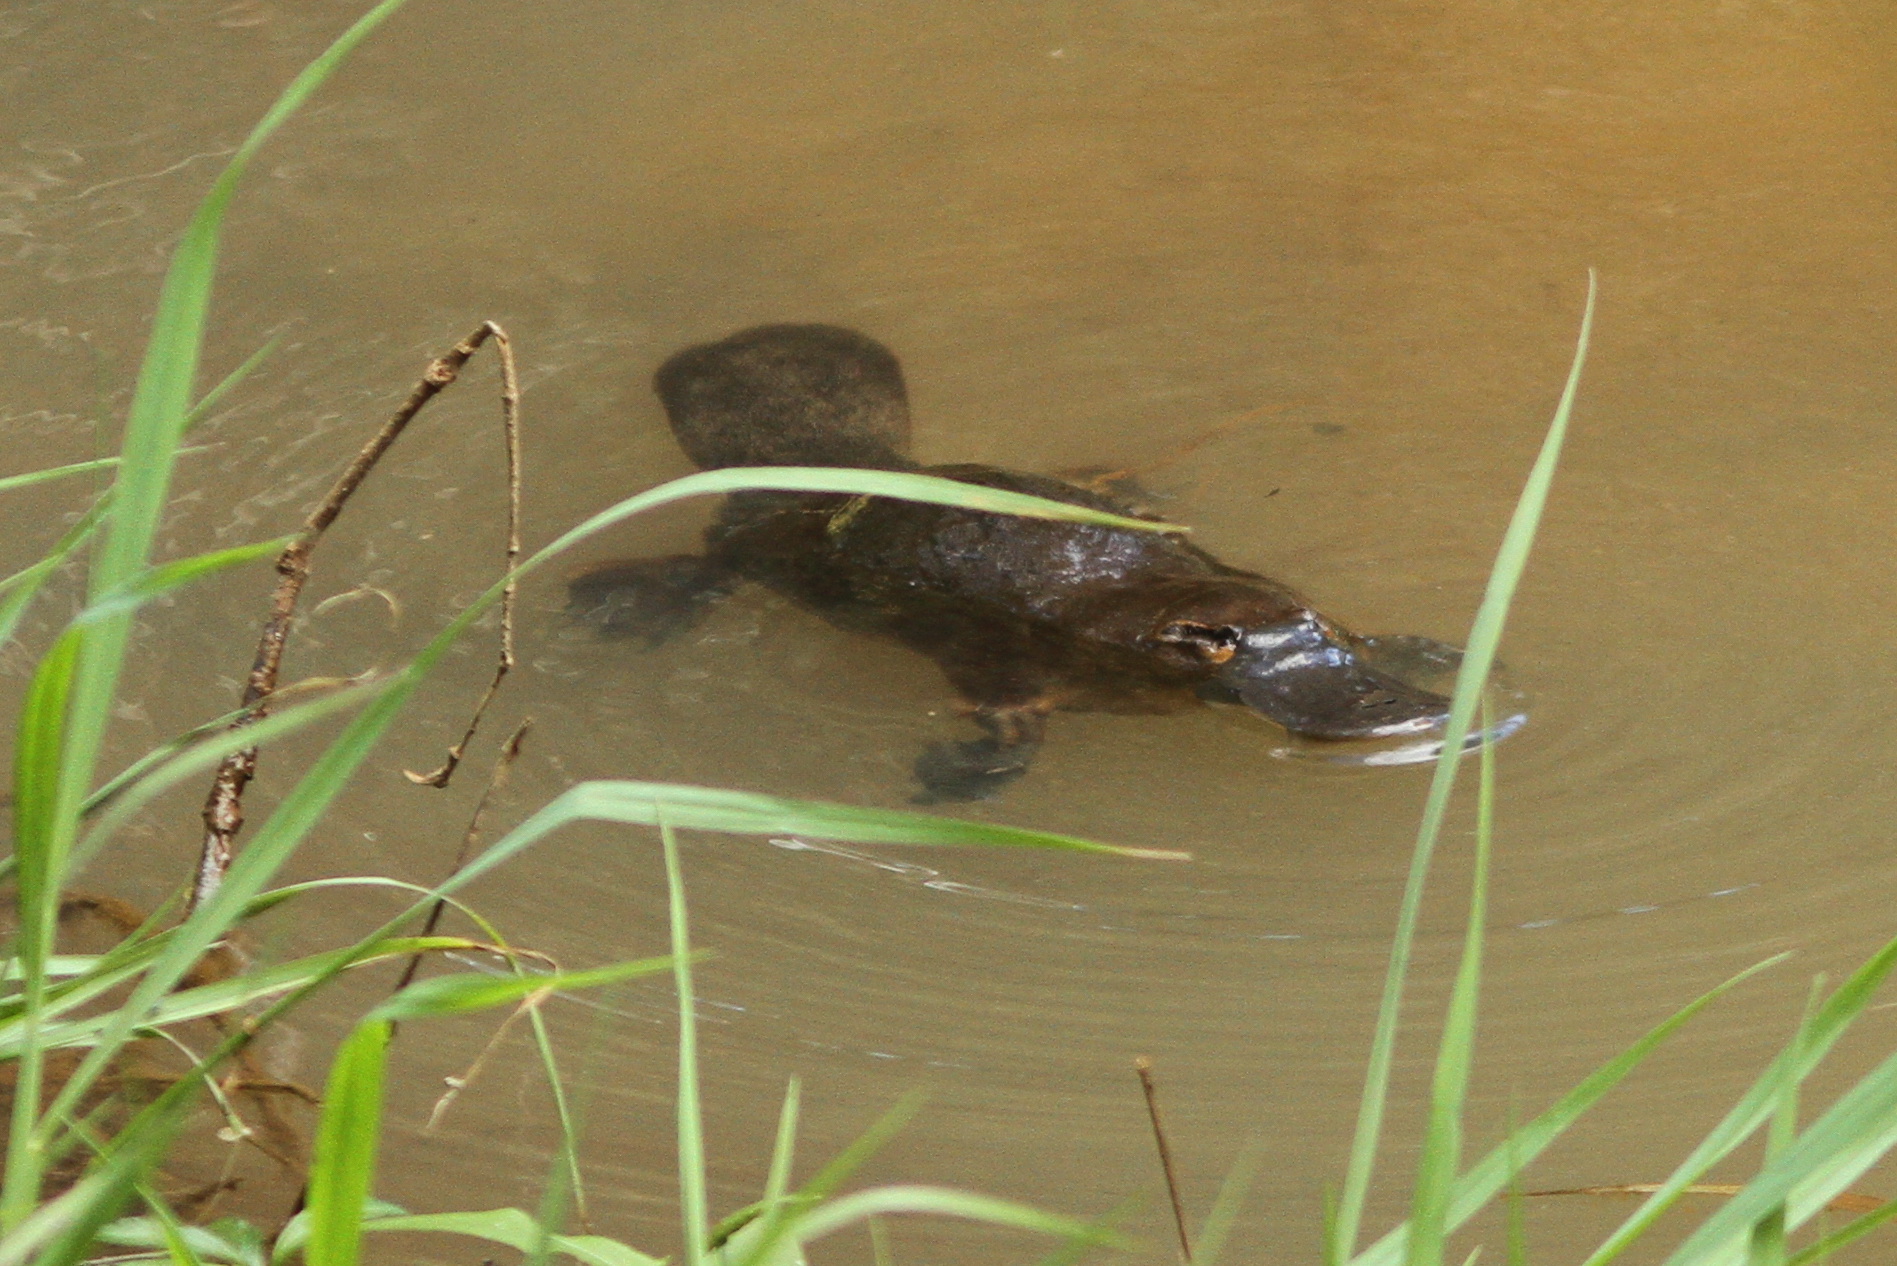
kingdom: Animalia
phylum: Chordata
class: Mammalia
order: Monotremata
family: Ornithorhynchidae
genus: Ornithorhynchus
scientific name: Ornithorhynchus anatinus
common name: Platypus
